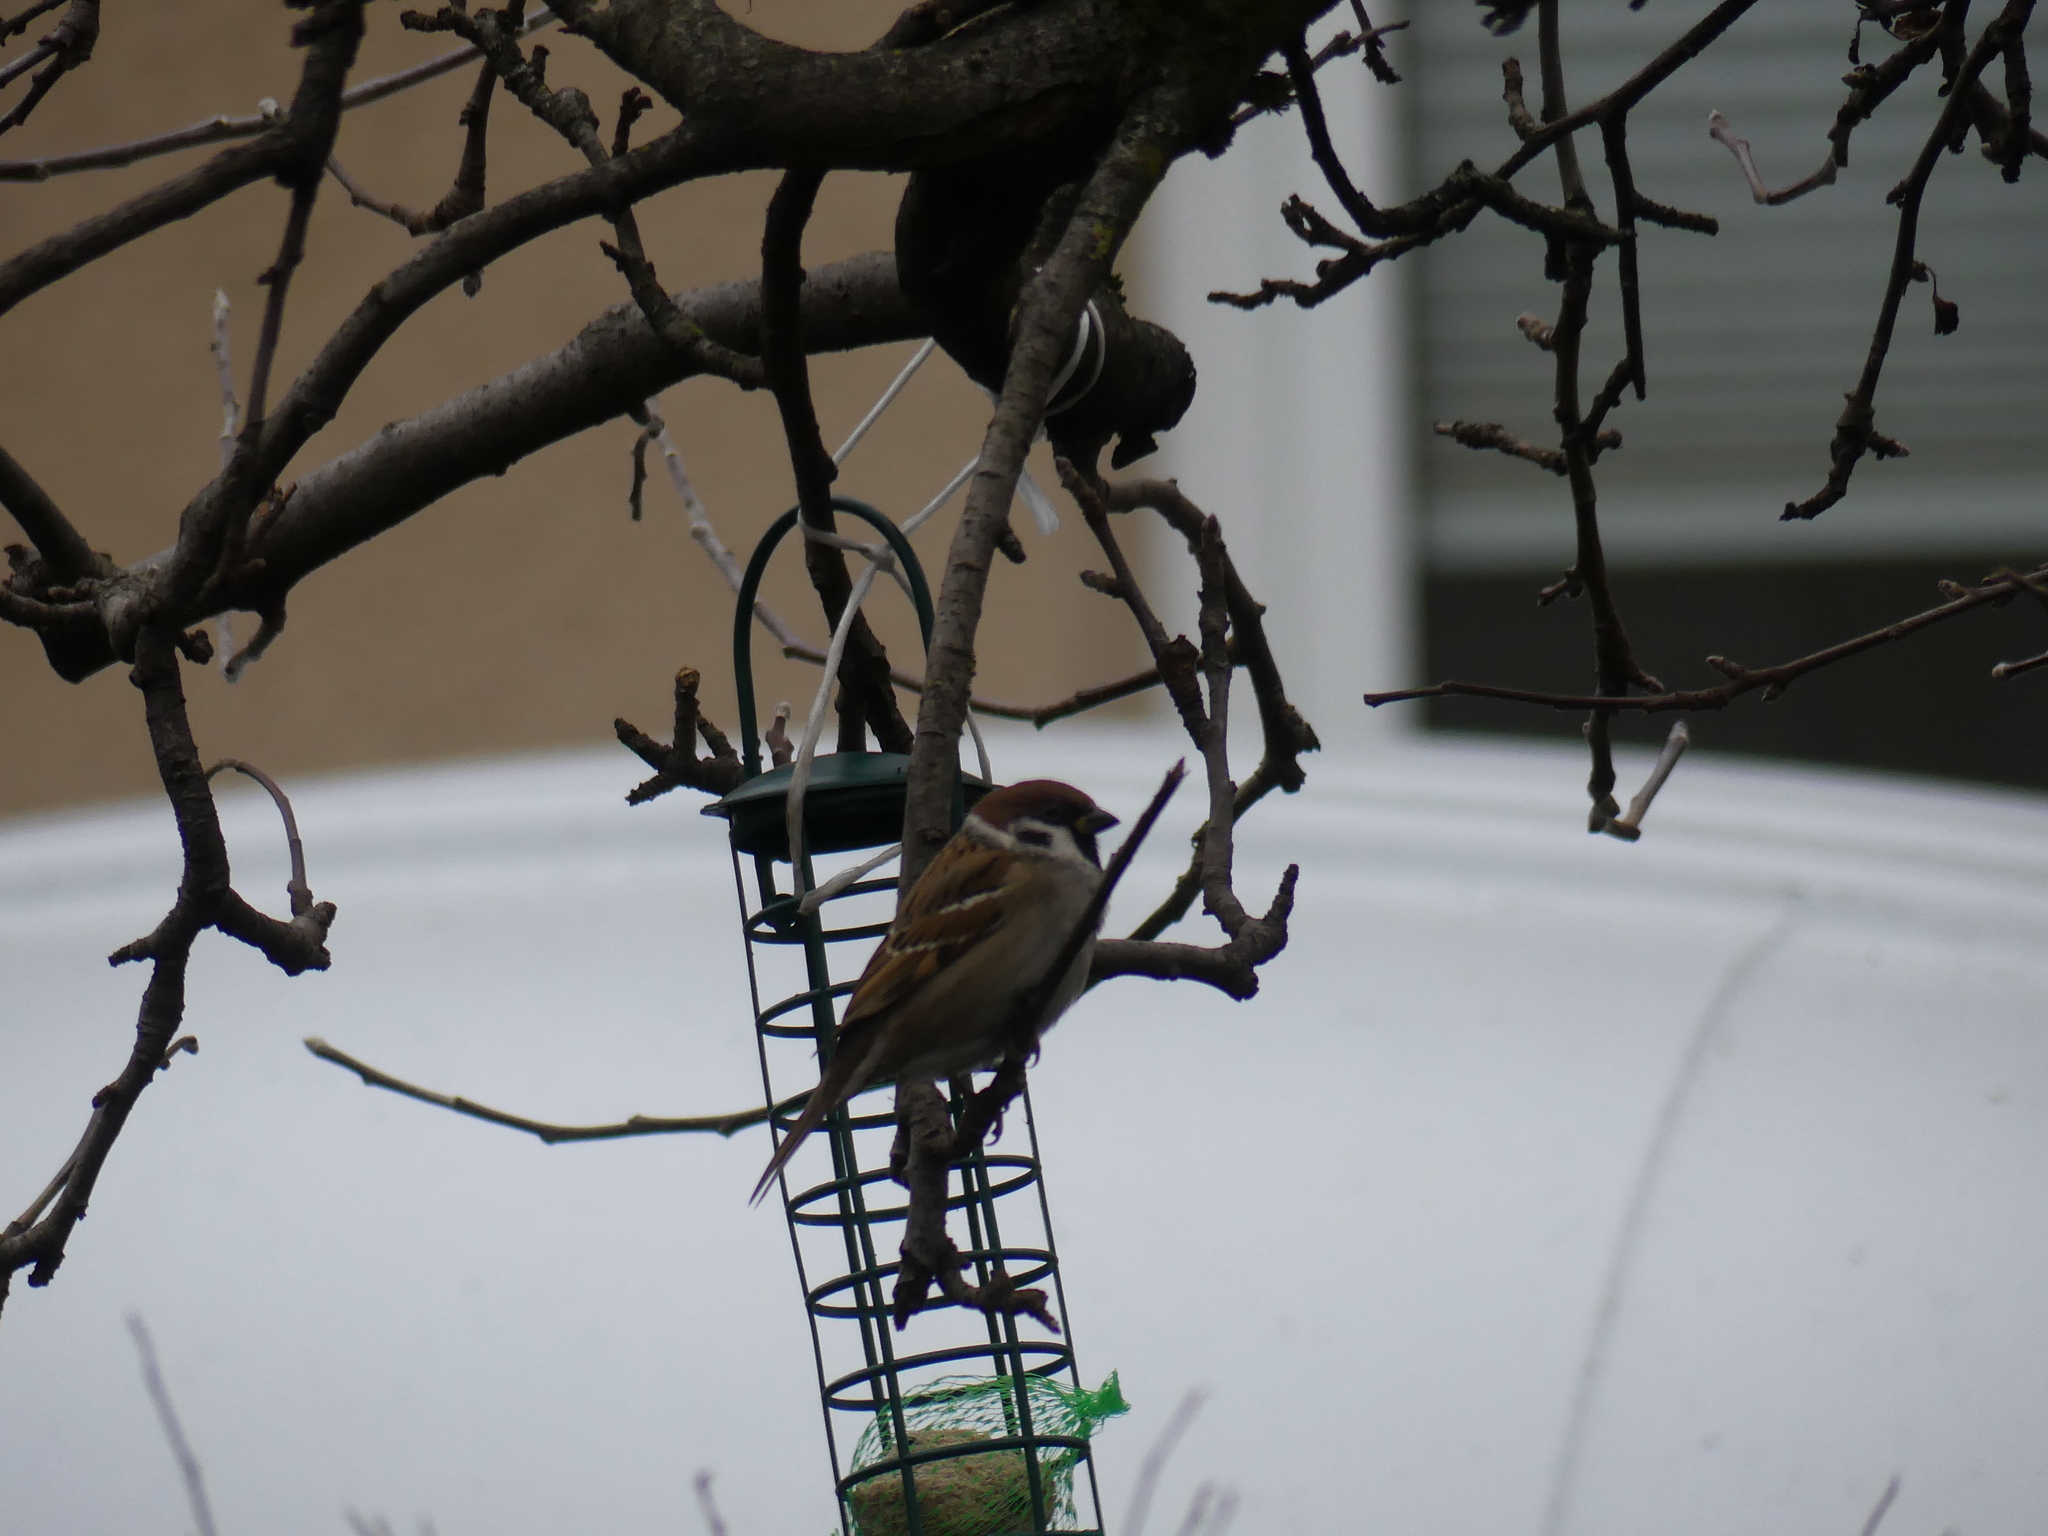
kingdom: Animalia
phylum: Chordata
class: Aves
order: Passeriformes
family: Passeridae
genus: Passer
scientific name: Passer montanus
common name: Eurasian tree sparrow
